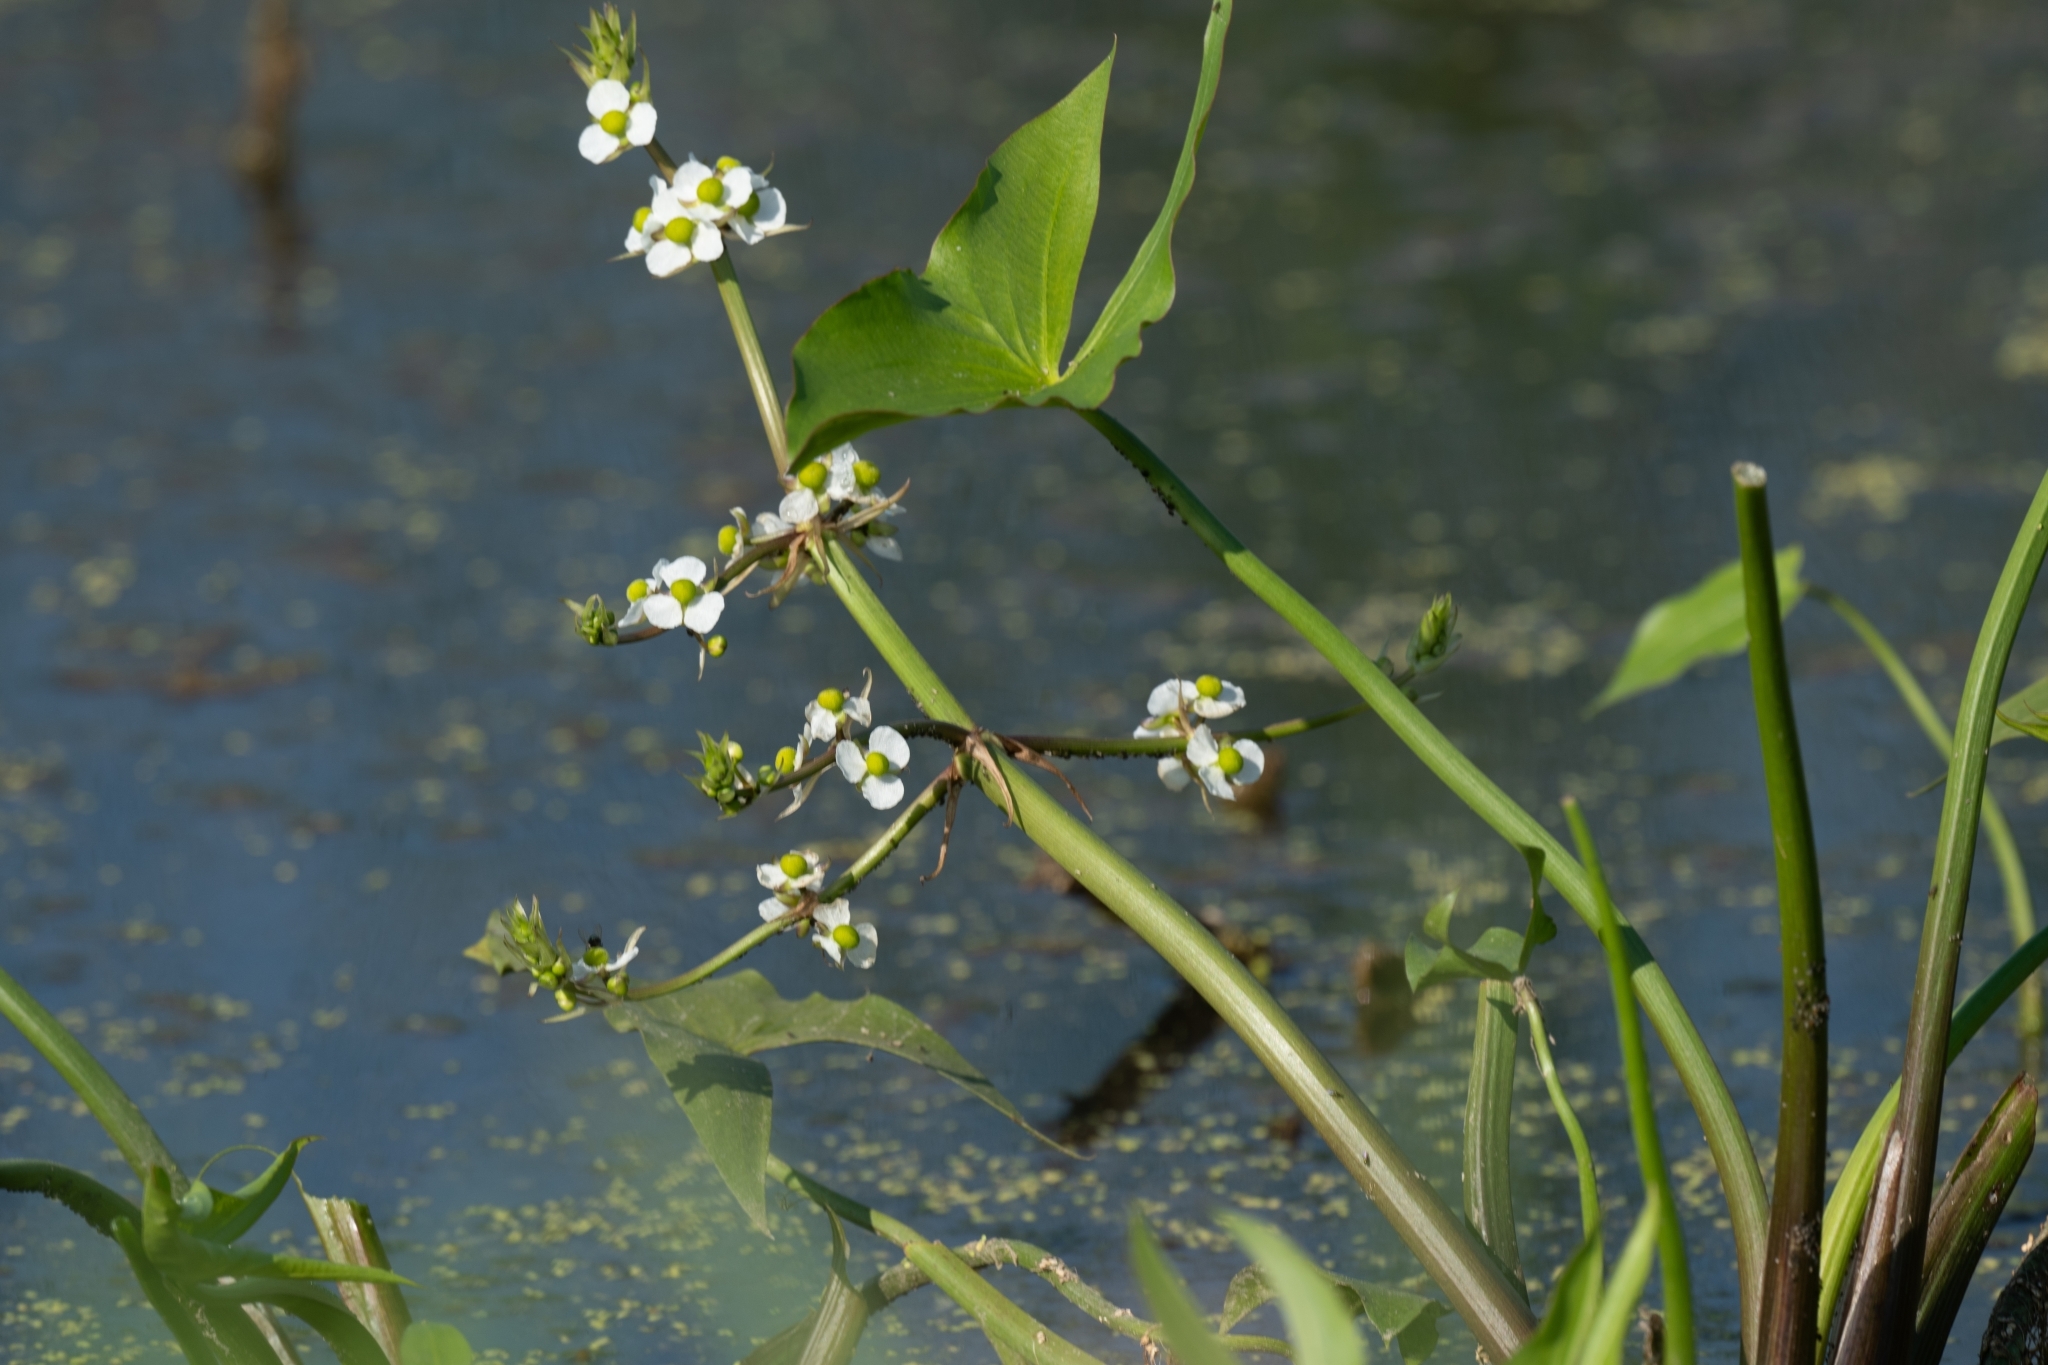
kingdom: Plantae
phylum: Tracheophyta
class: Liliopsida
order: Alismatales
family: Alismataceae
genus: Sagittaria
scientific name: Sagittaria cuneata
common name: Northern arrowhead
